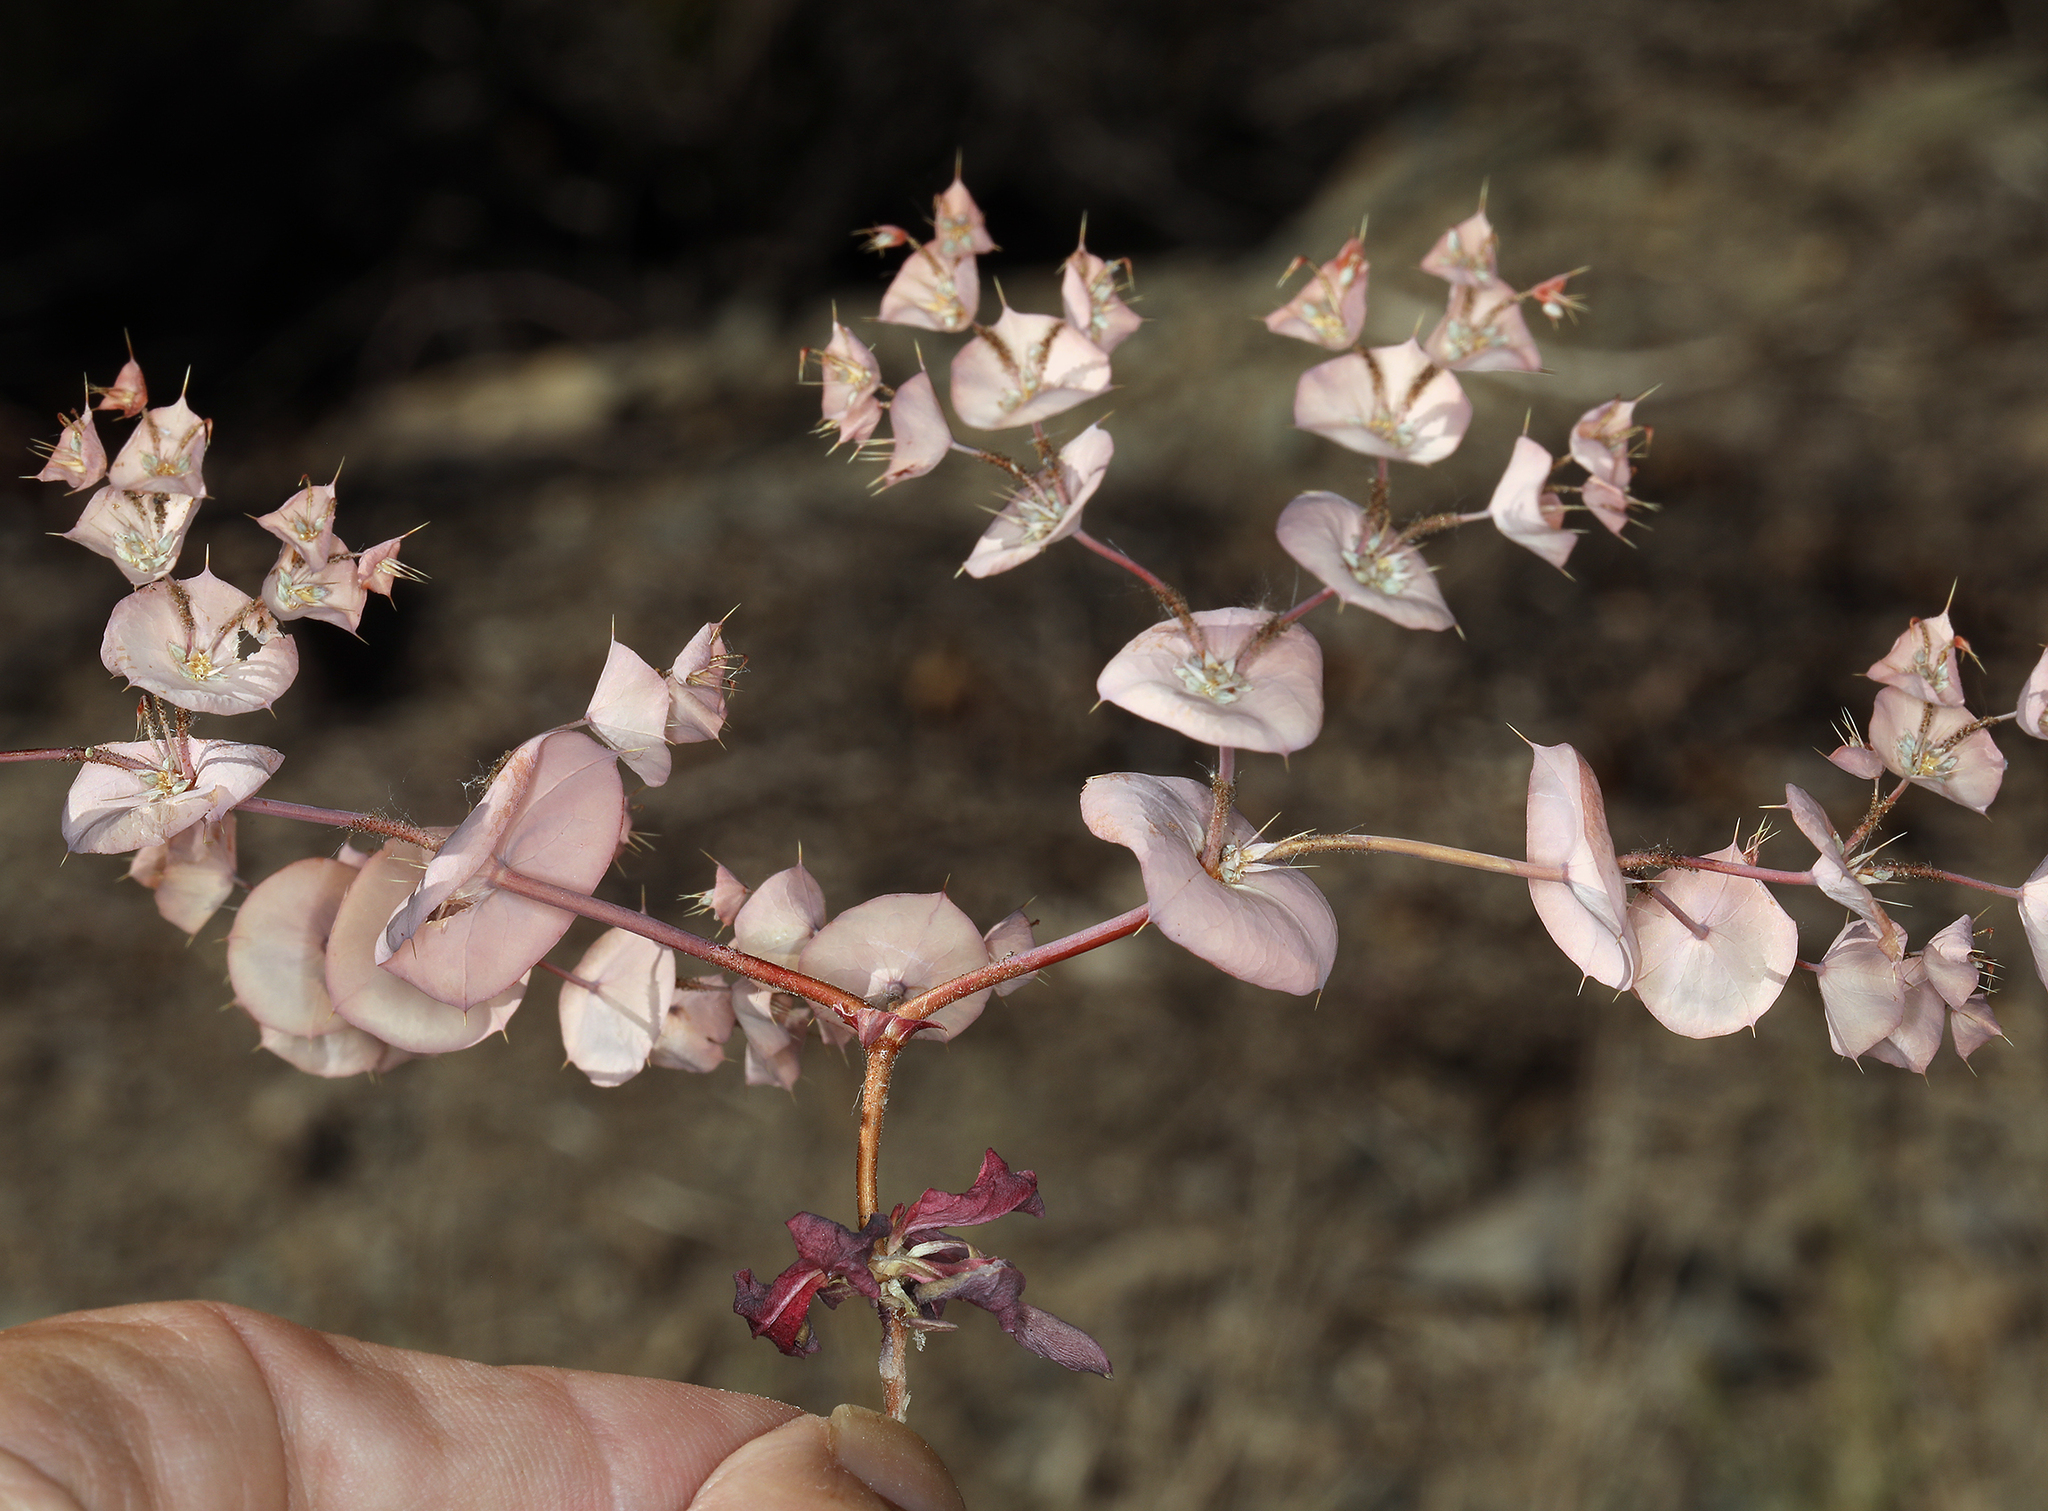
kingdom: Plantae
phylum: Tracheophyta
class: Magnoliopsida
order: Caryophyllales
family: Polygonaceae
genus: Oxytheca
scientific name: Oxytheca perfoliata
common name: Round-leaf puncturebract
